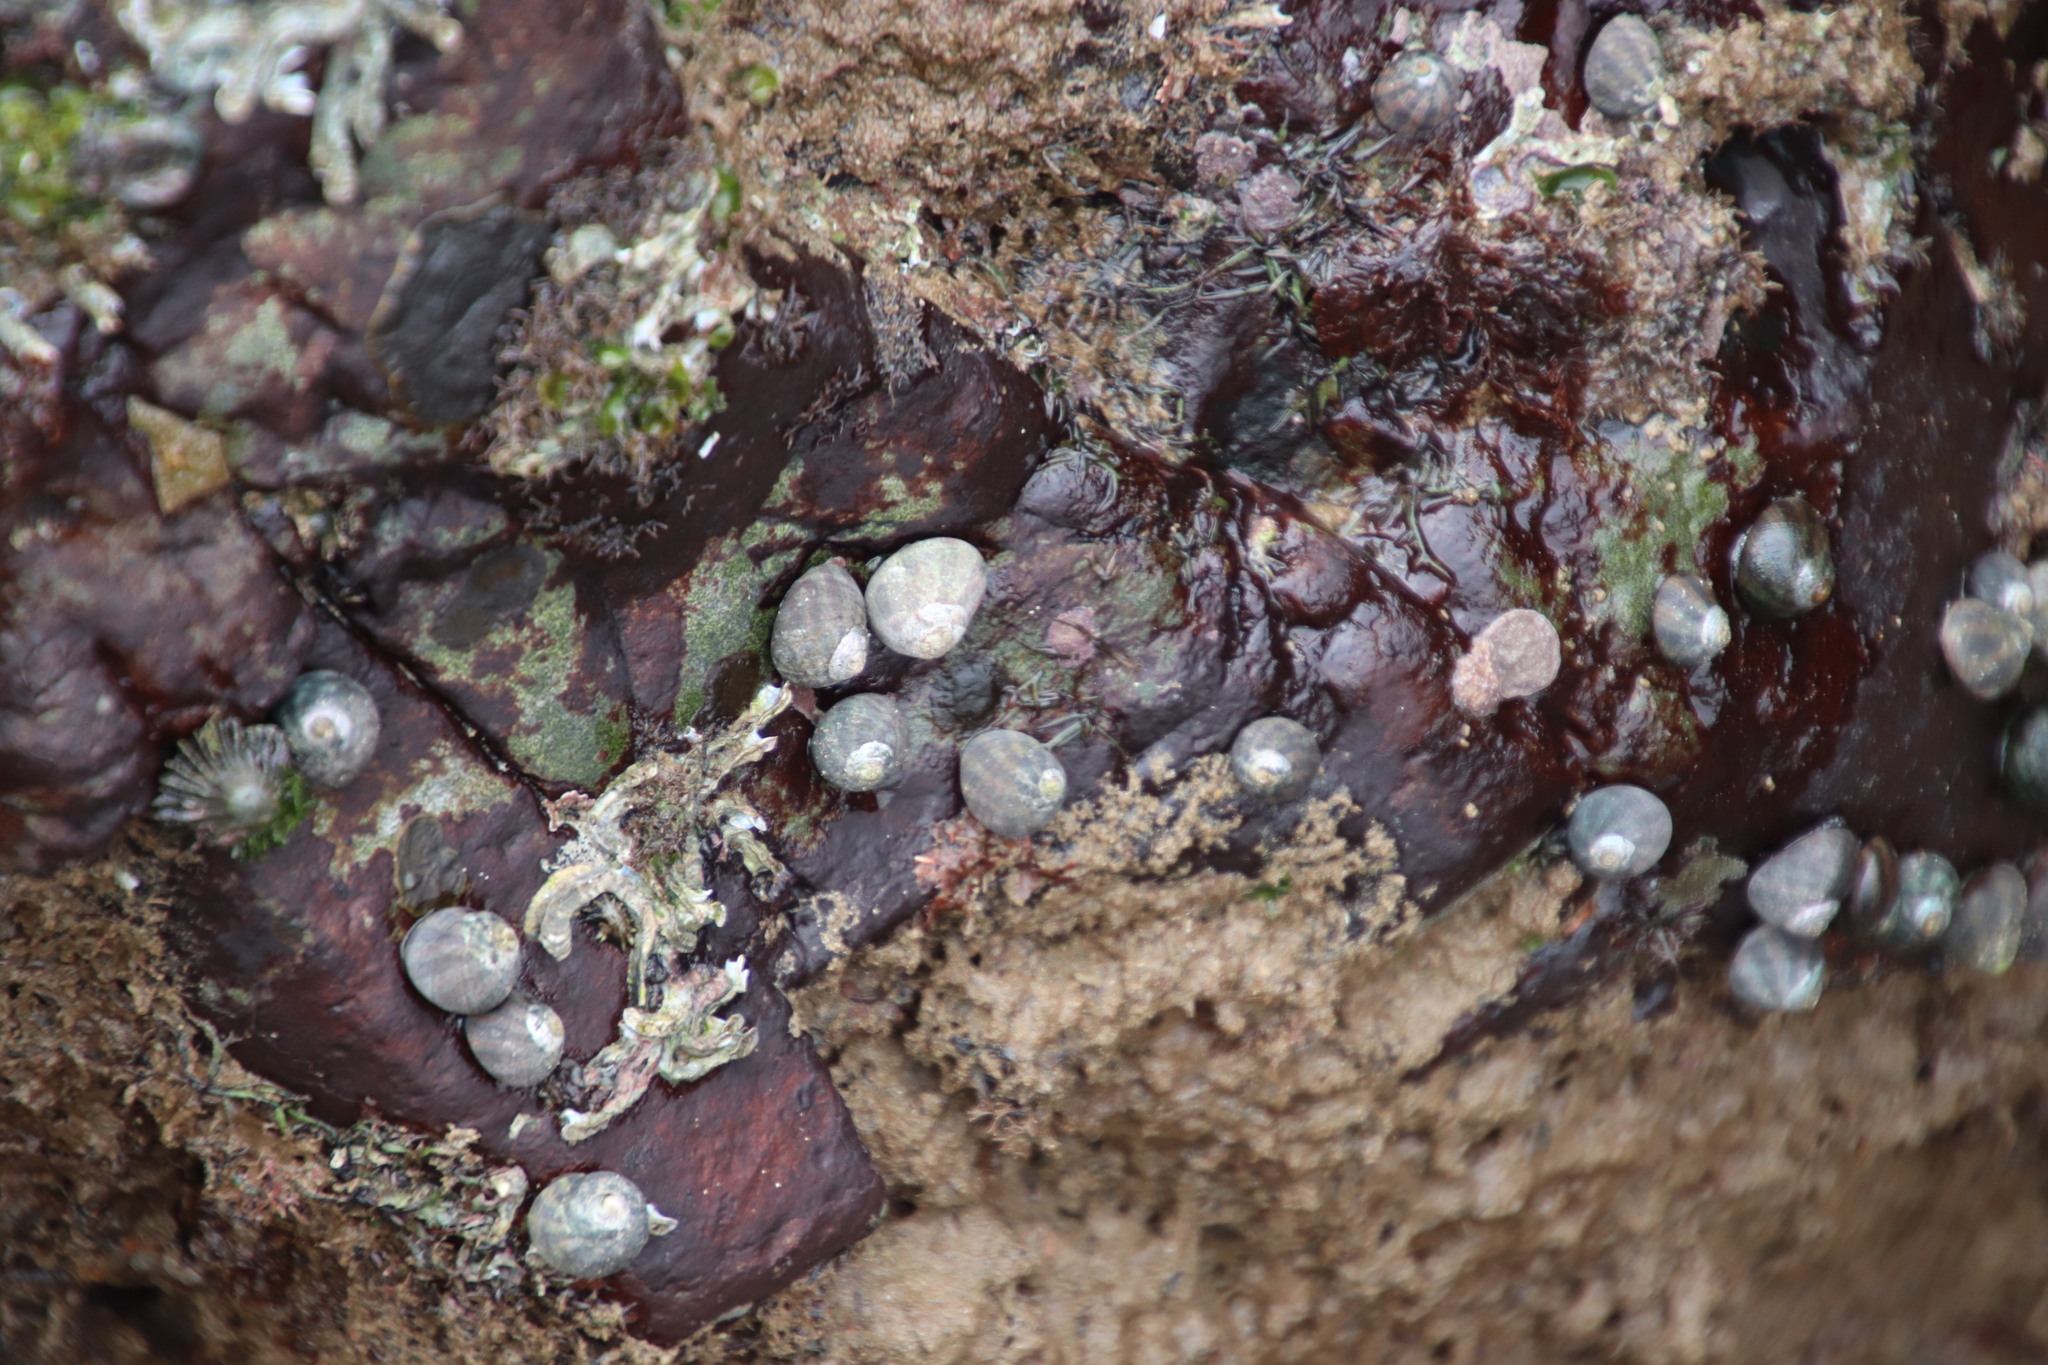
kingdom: Animalia
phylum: Mollusca
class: Gastropoda
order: Trochida
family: Trochidae
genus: Oxystele
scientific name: Oxystele tabularis
